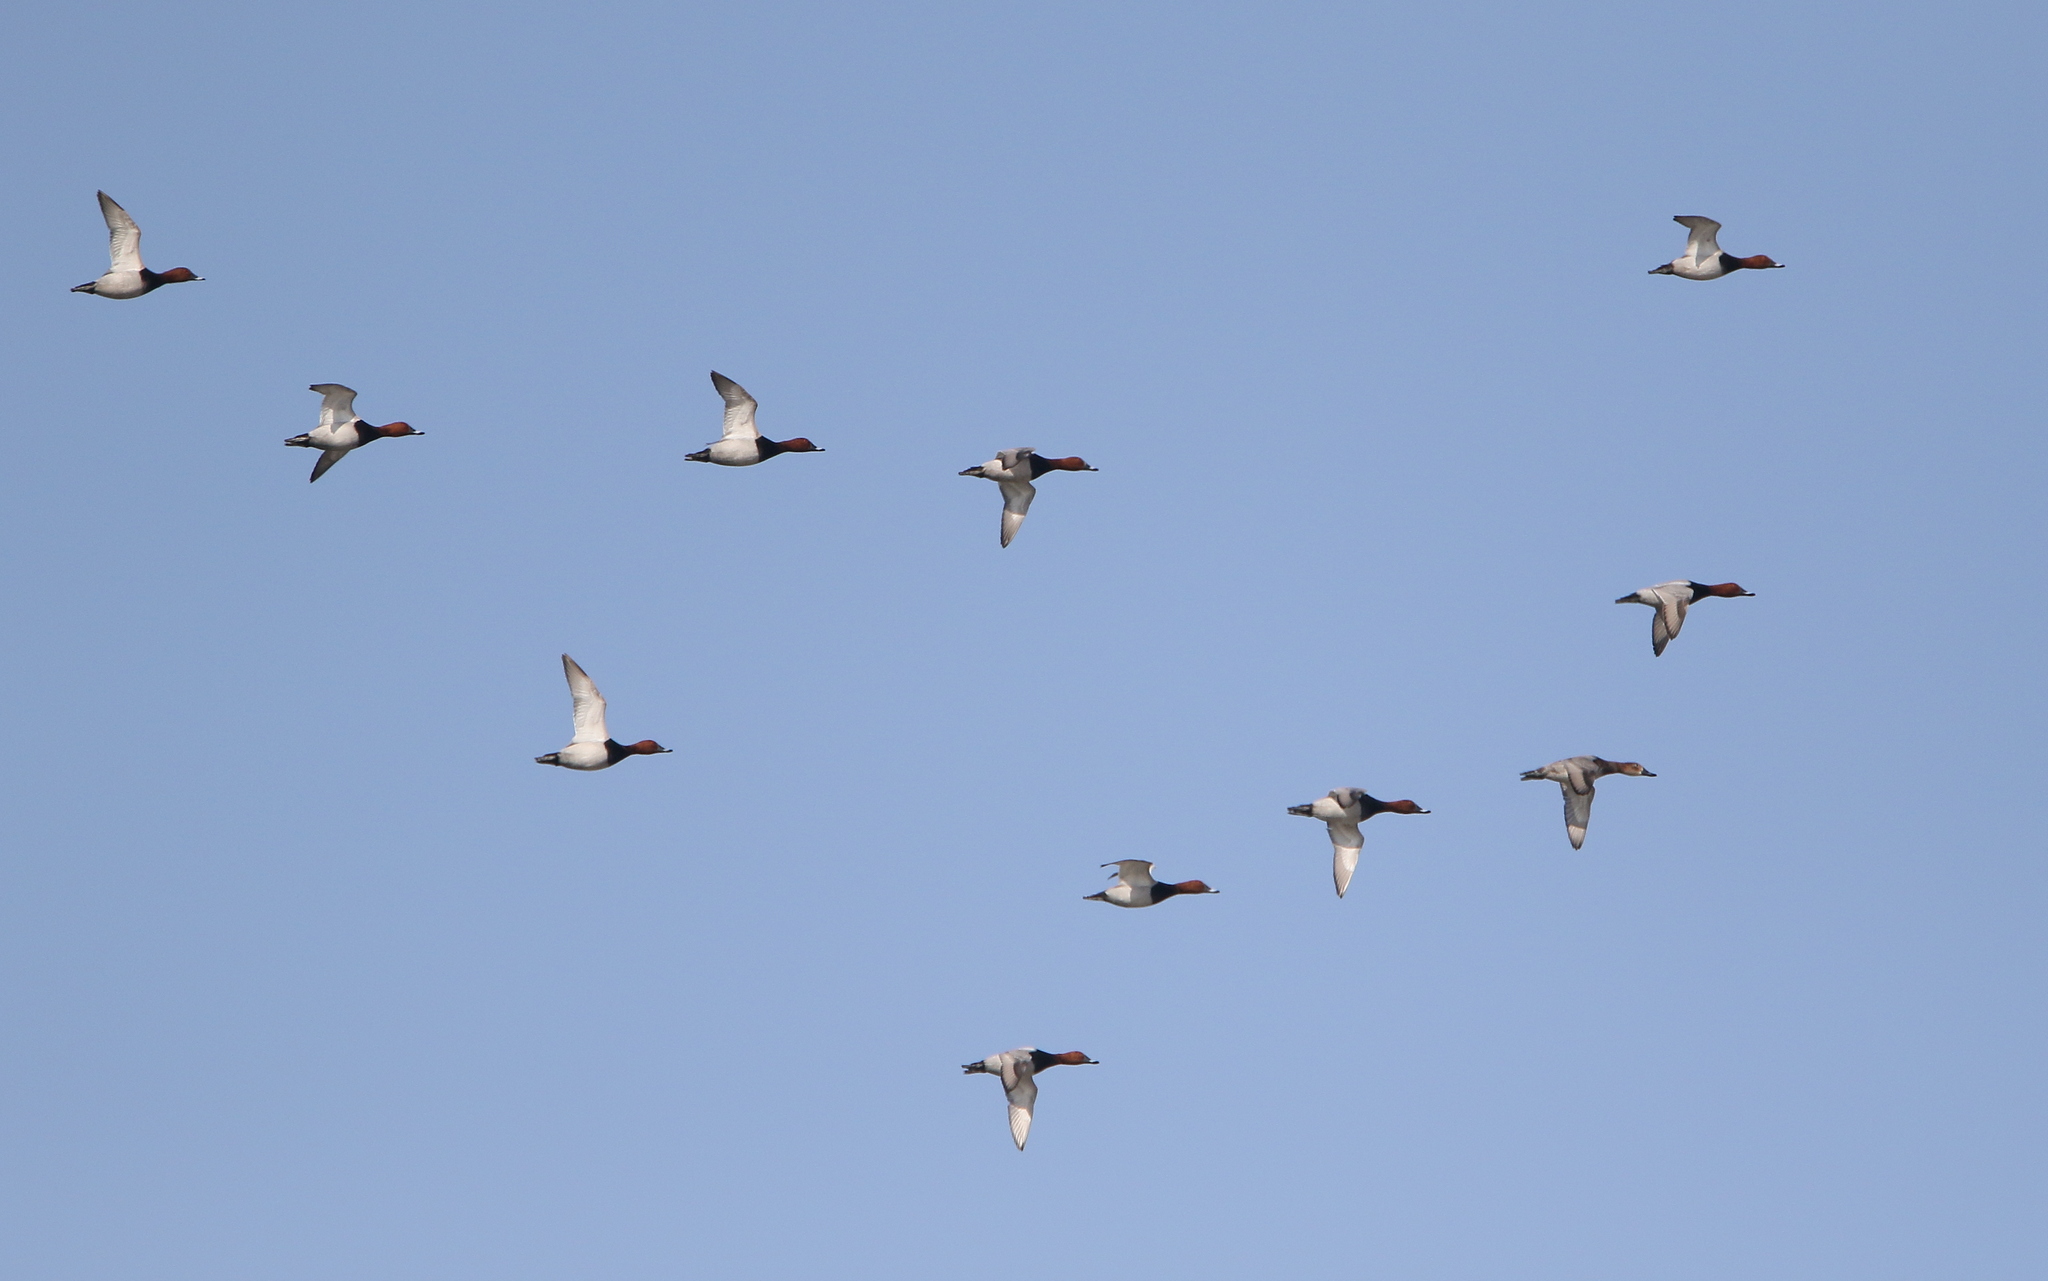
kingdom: Animalia
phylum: Chordata
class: Aves
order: Anseriformes
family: Anatidae
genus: Aythya
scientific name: Aythya ferina
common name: Common pochard
